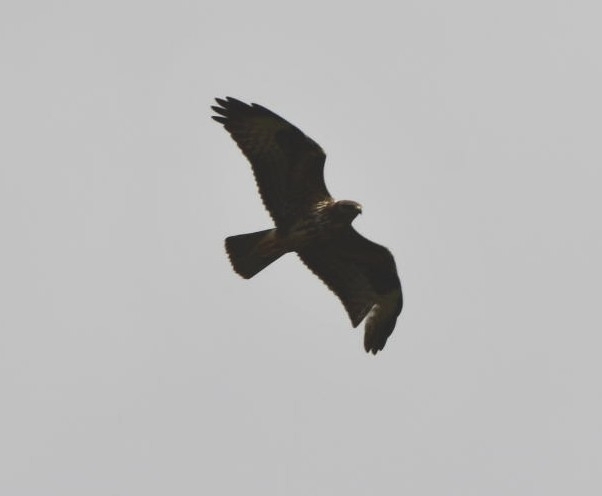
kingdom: Animalia
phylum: Chordata
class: Aves
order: Accipitriformes
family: Accipitridae
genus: Buteo
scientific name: Buteo buteo
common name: Common buzzard
